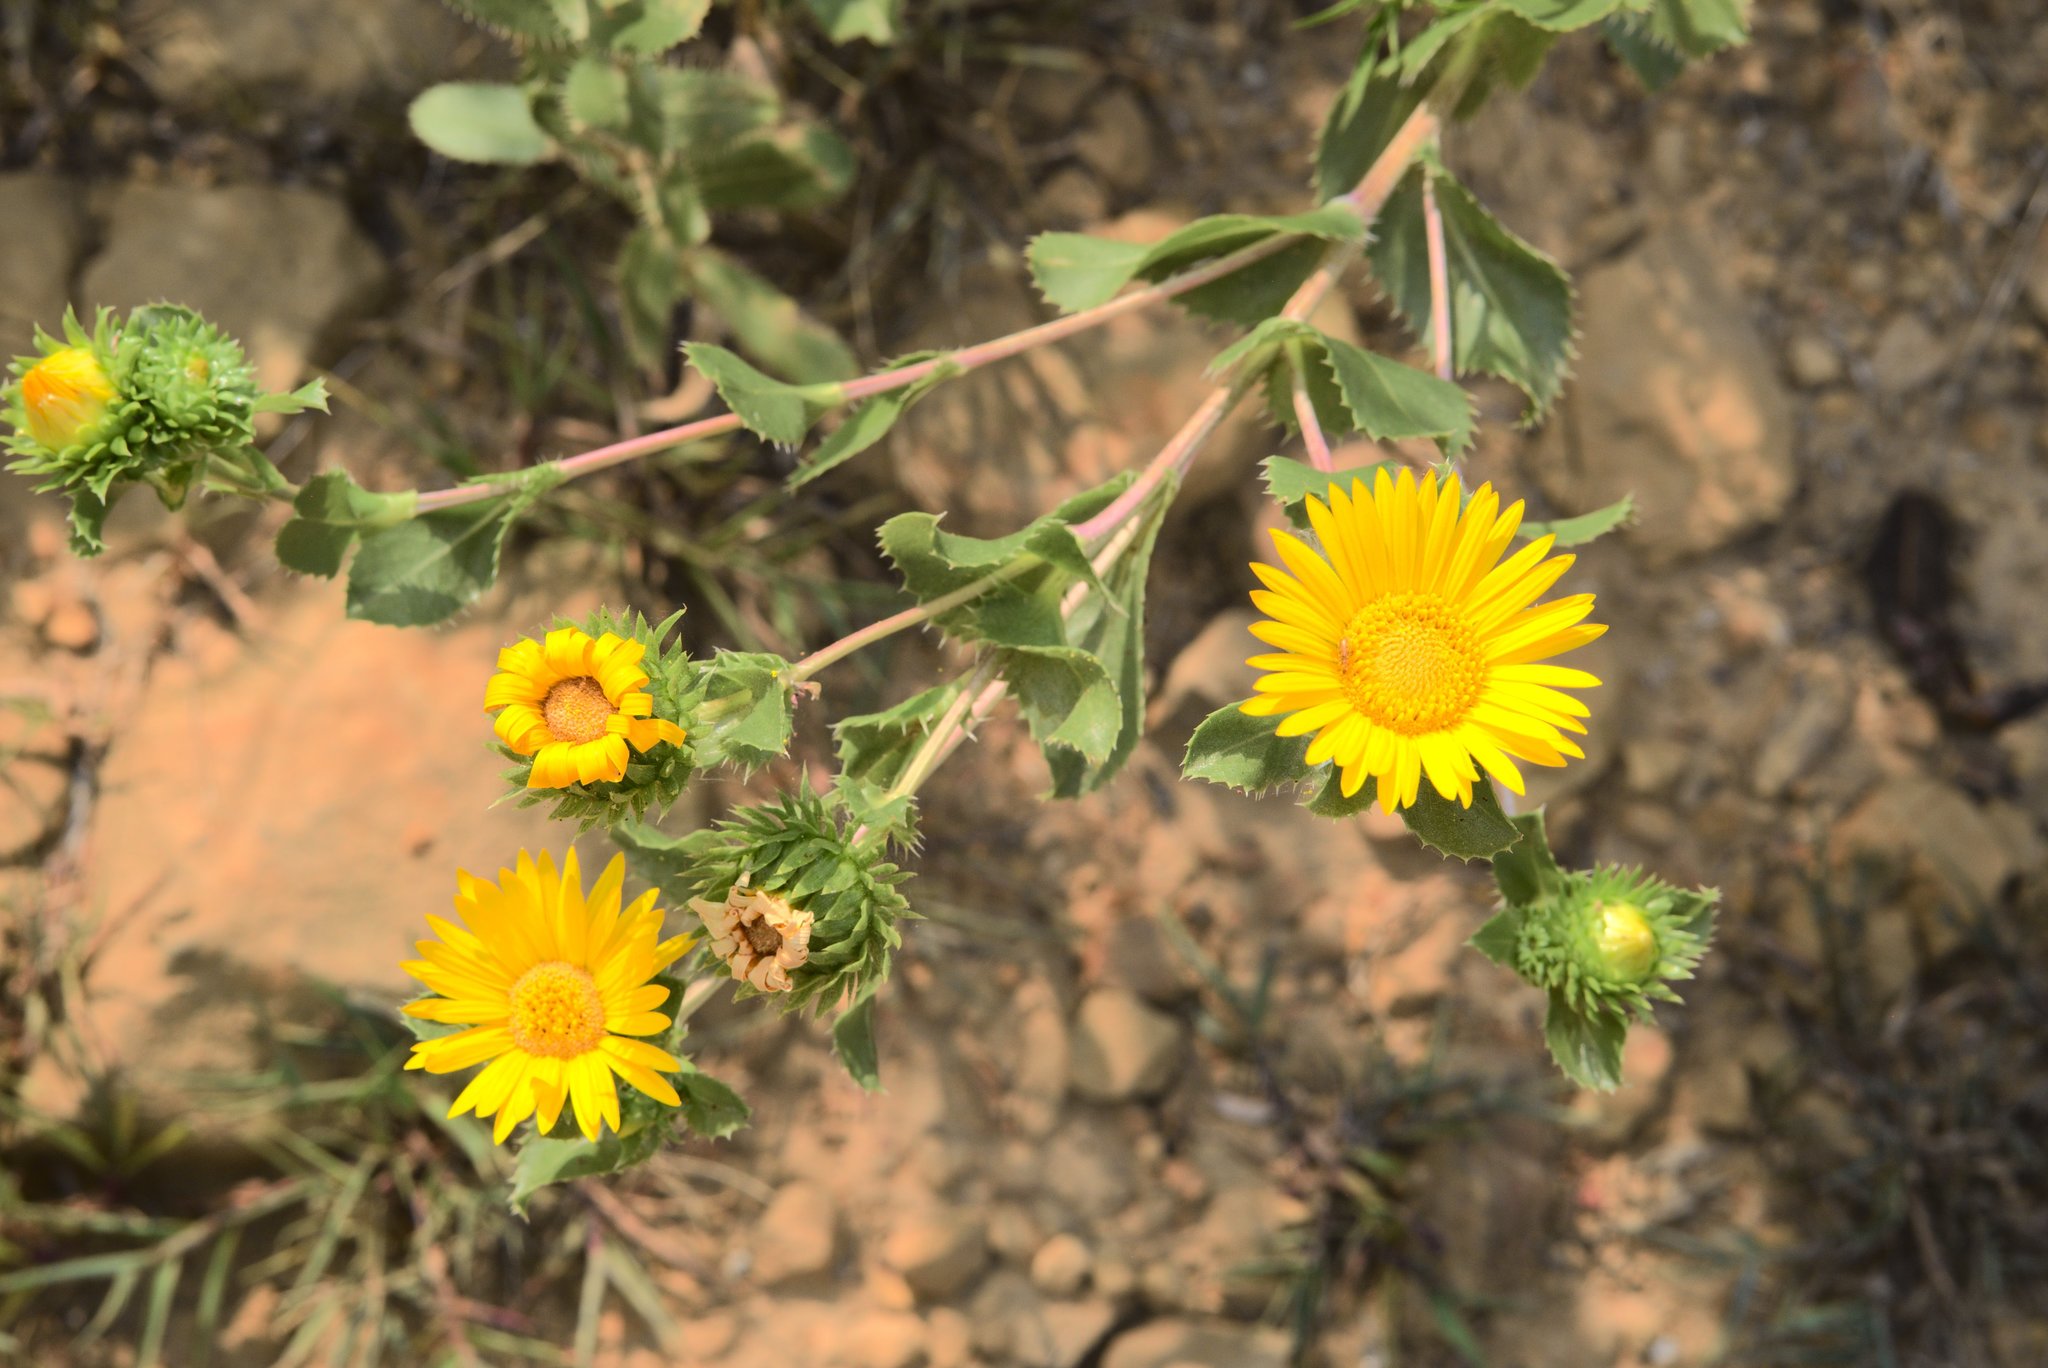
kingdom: Plantae
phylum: Tracheophyta
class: Magnoliopsida
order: Asterales
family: Asteraceae
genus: Grindelia
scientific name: Grindelia ciliata
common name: Goldenweed
